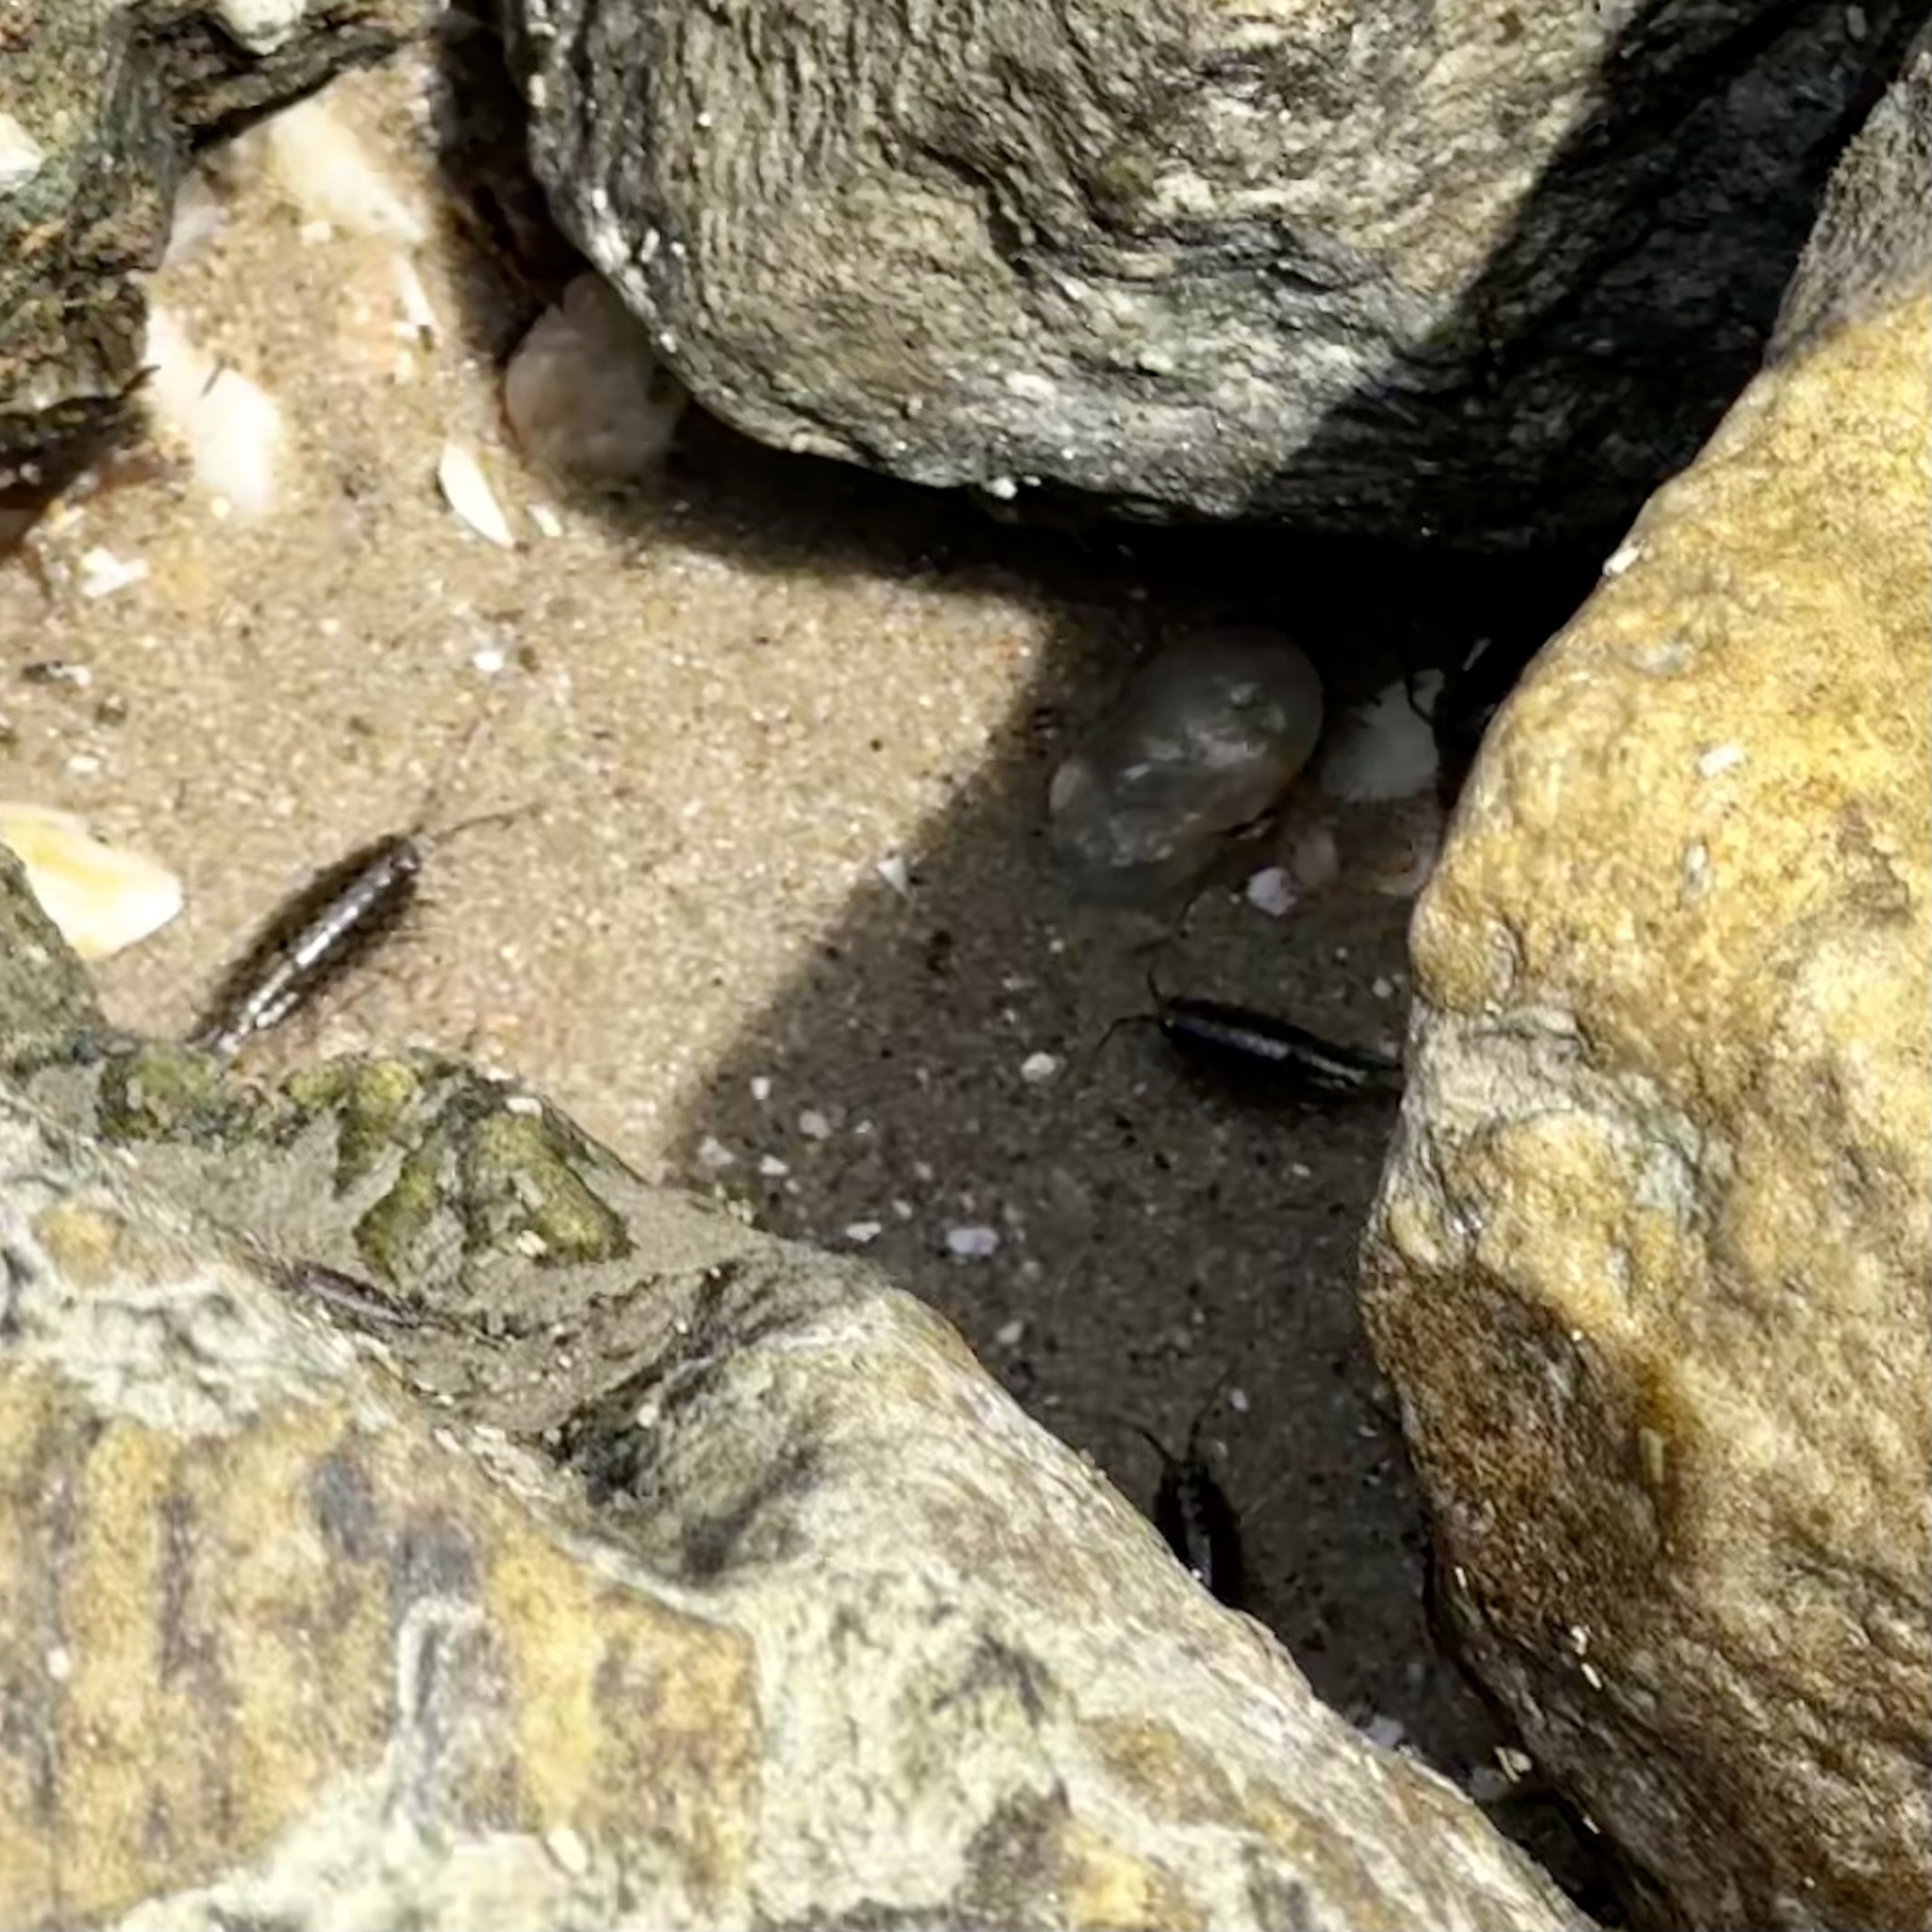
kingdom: Animalia
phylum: Arthropoda
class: Malacostraca
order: Isopoda
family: Ligiidae
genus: Ligia
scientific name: Ligia exotica
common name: Wharf roach
